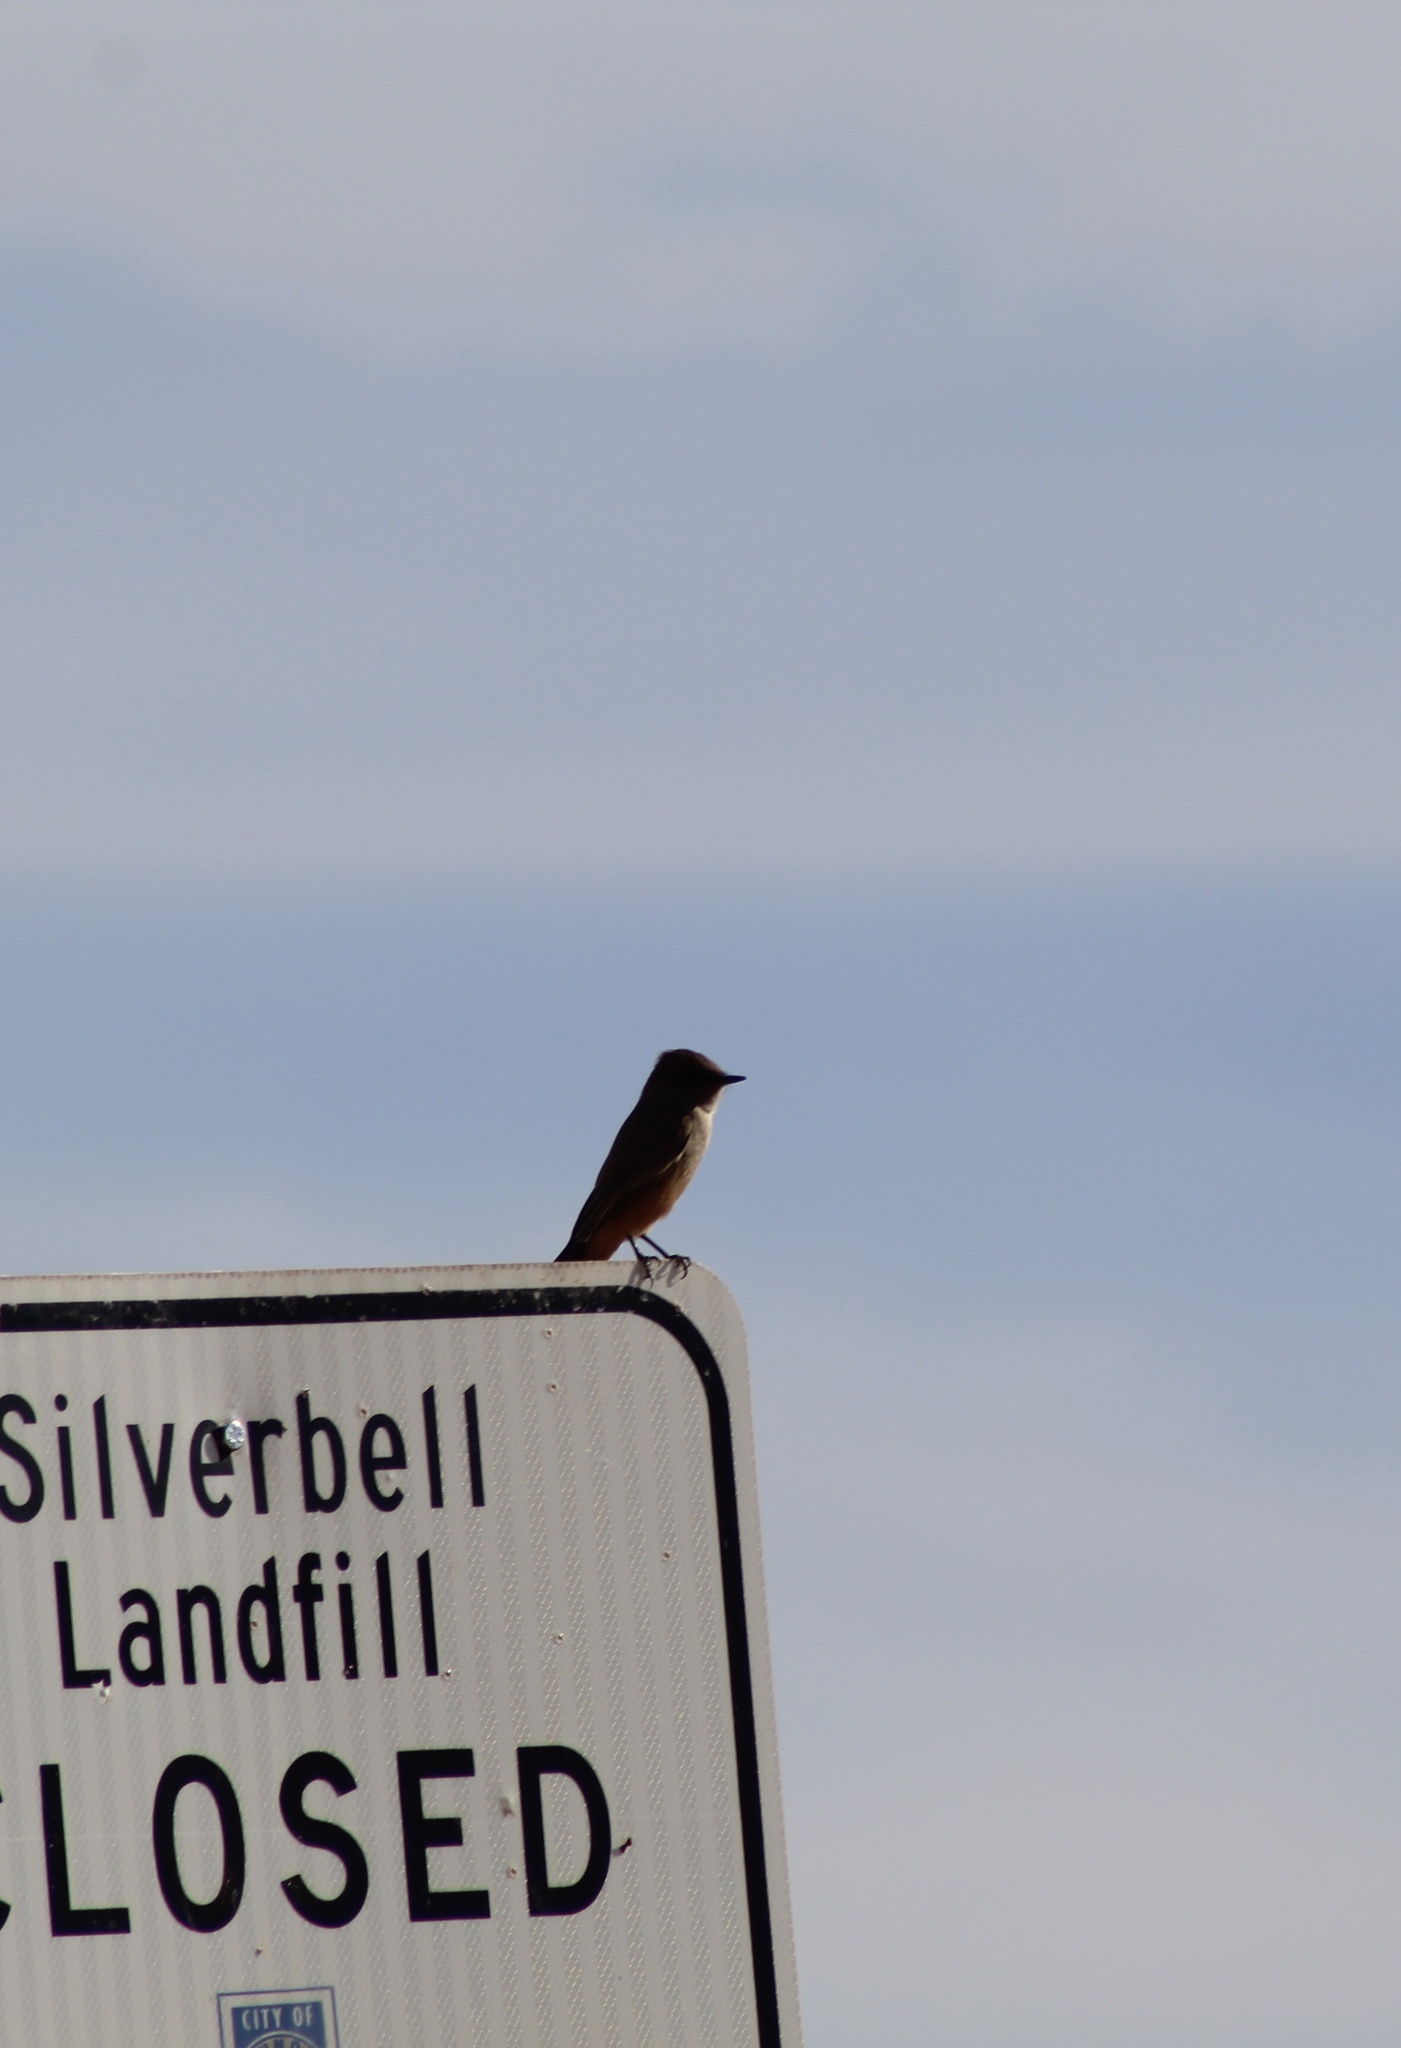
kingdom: Animalia
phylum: Chordata
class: Aves
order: Passeriformes
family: Tyrannidae
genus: Sayornis
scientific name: Sayornis saya
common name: Say's phoebe
